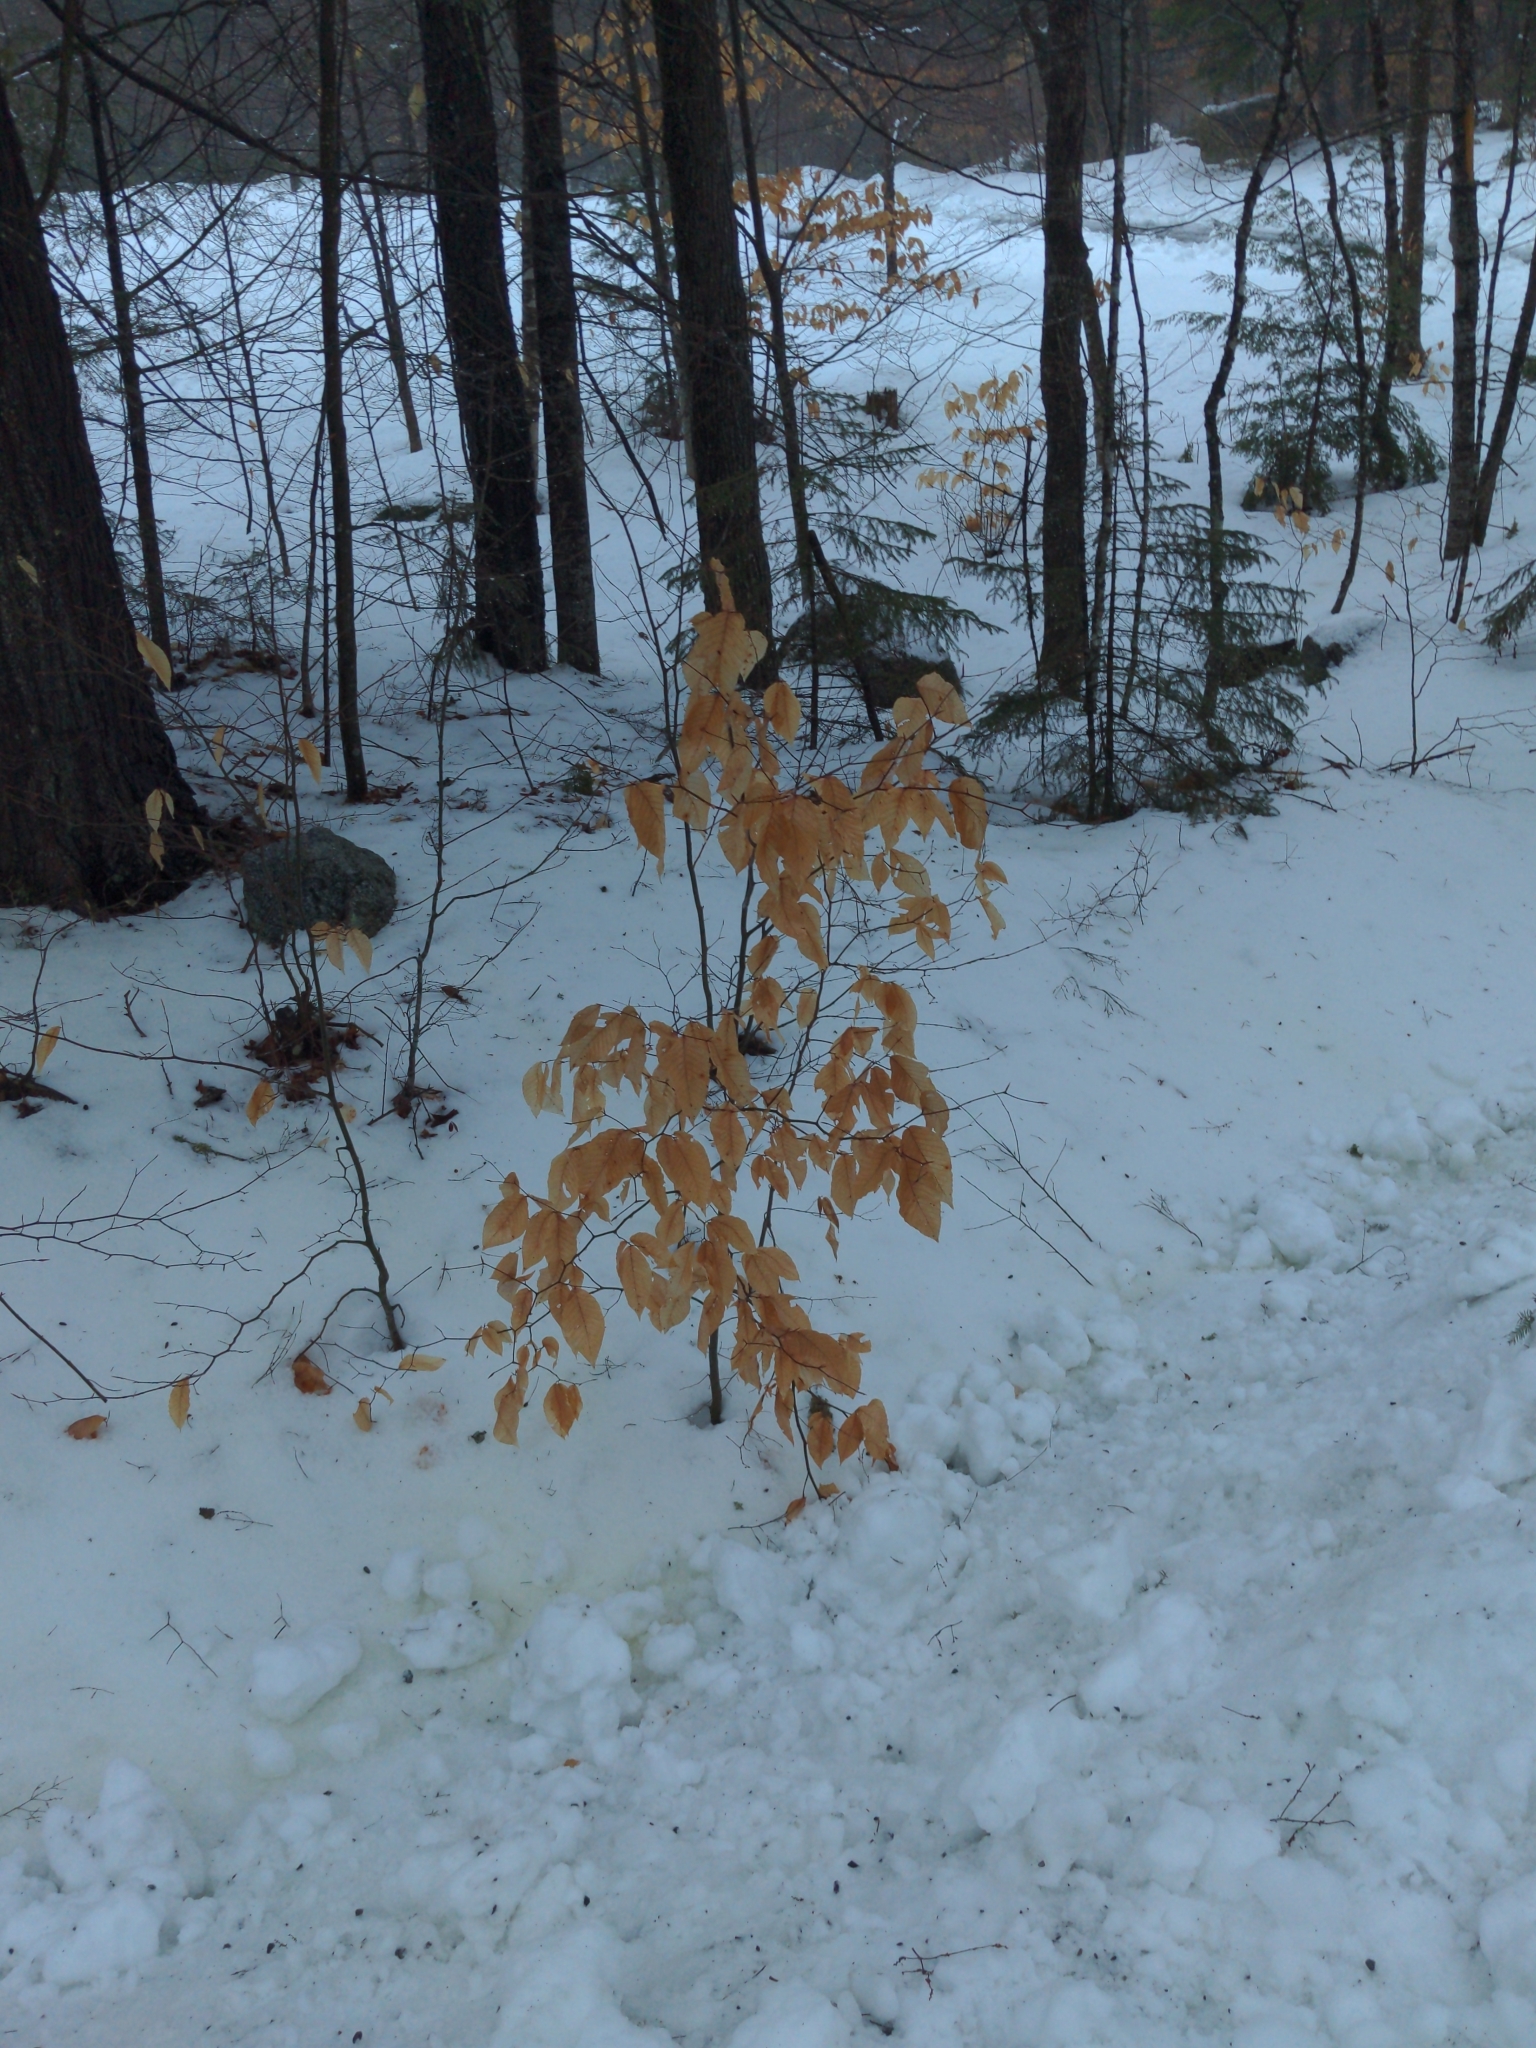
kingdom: Plantae
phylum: Tracheophyta
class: Magnoliopsida
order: Fagales
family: Fagaceae
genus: Fagus
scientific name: Fagus grandifolia
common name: American beech
